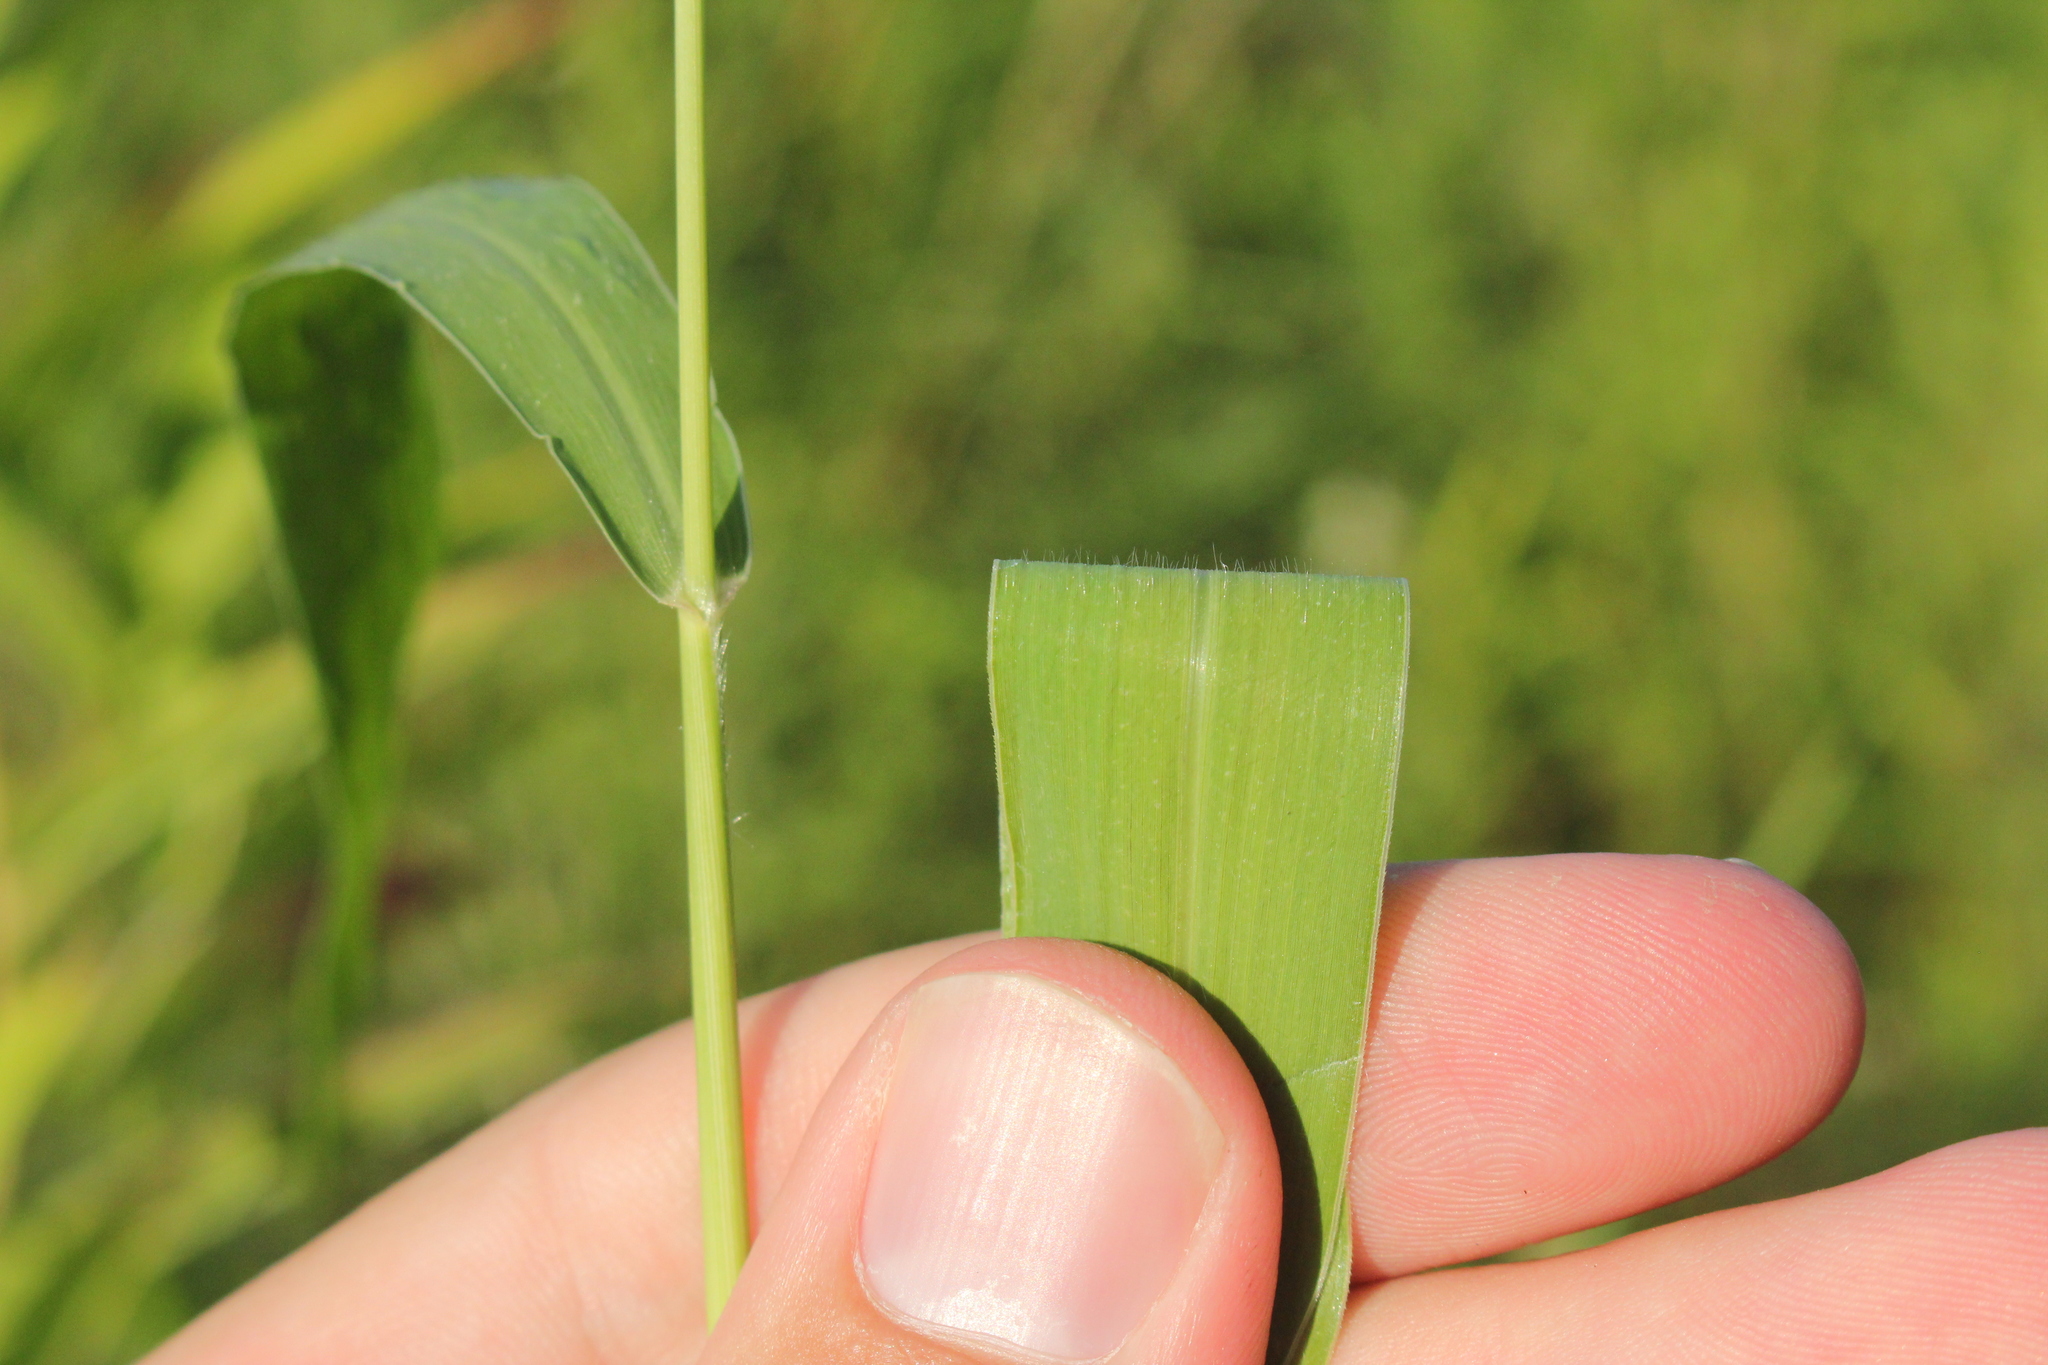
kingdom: Plantae
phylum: Tracheophyta
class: Liliopsida
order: Poales
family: Poaceae
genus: Setaria
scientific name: Setaria faberi
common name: Nodding bristle-grass
